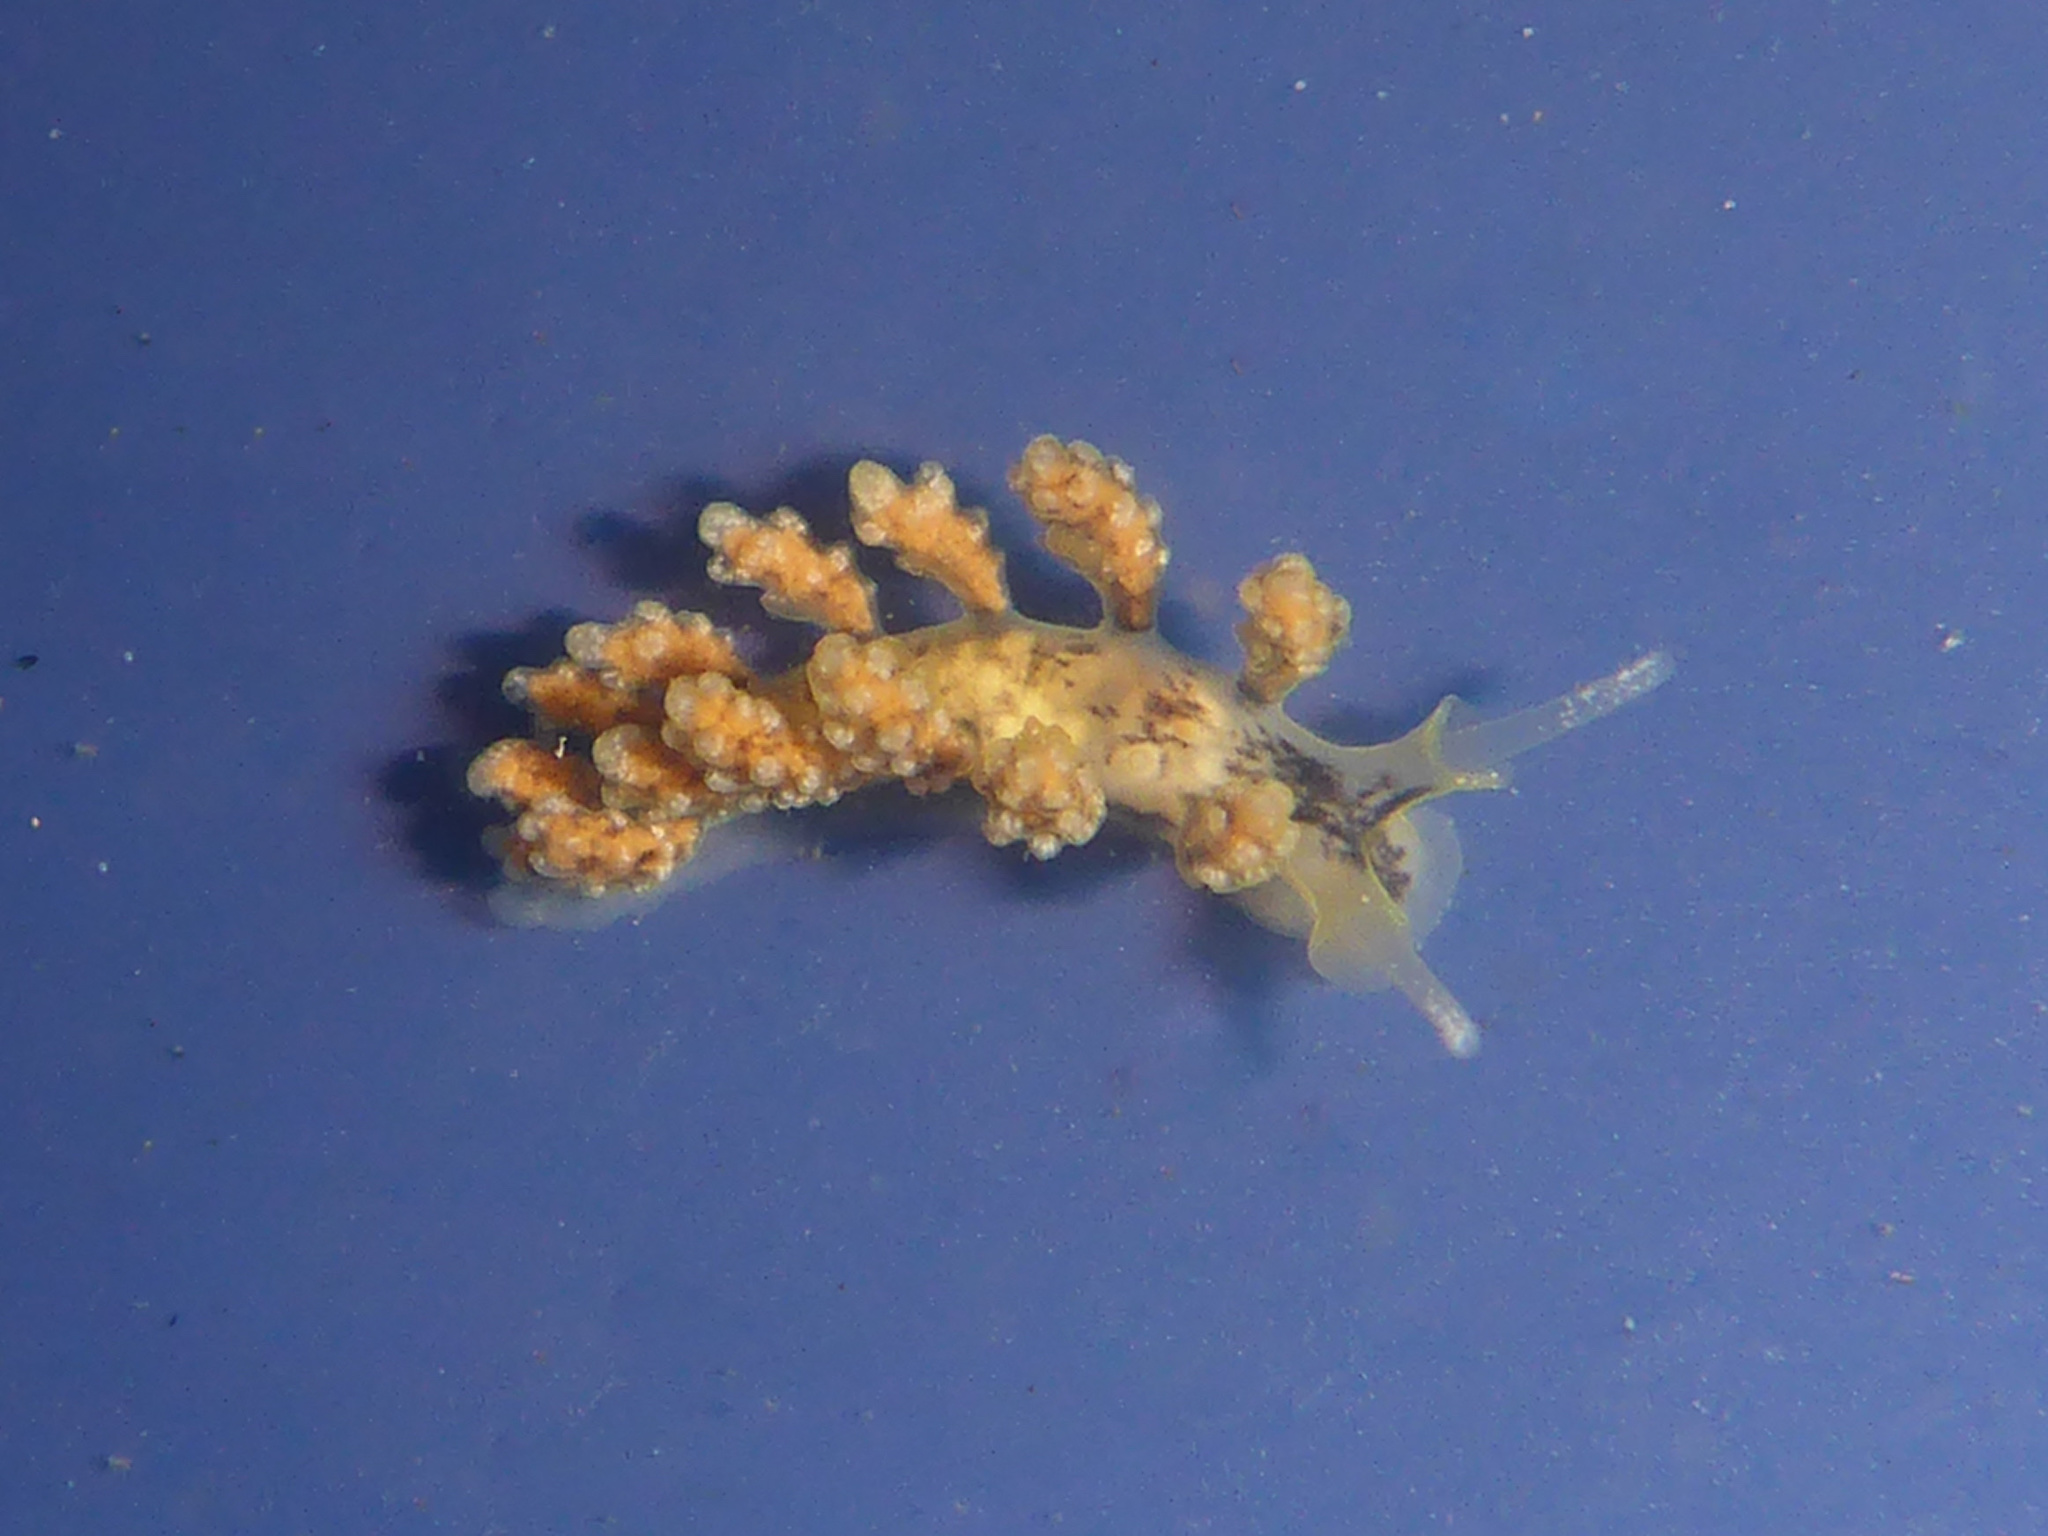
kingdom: Animalia
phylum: Mollusca
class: Gastropoda
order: Nudibranchia
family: Dotidae
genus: Doto
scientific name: Doto kya
